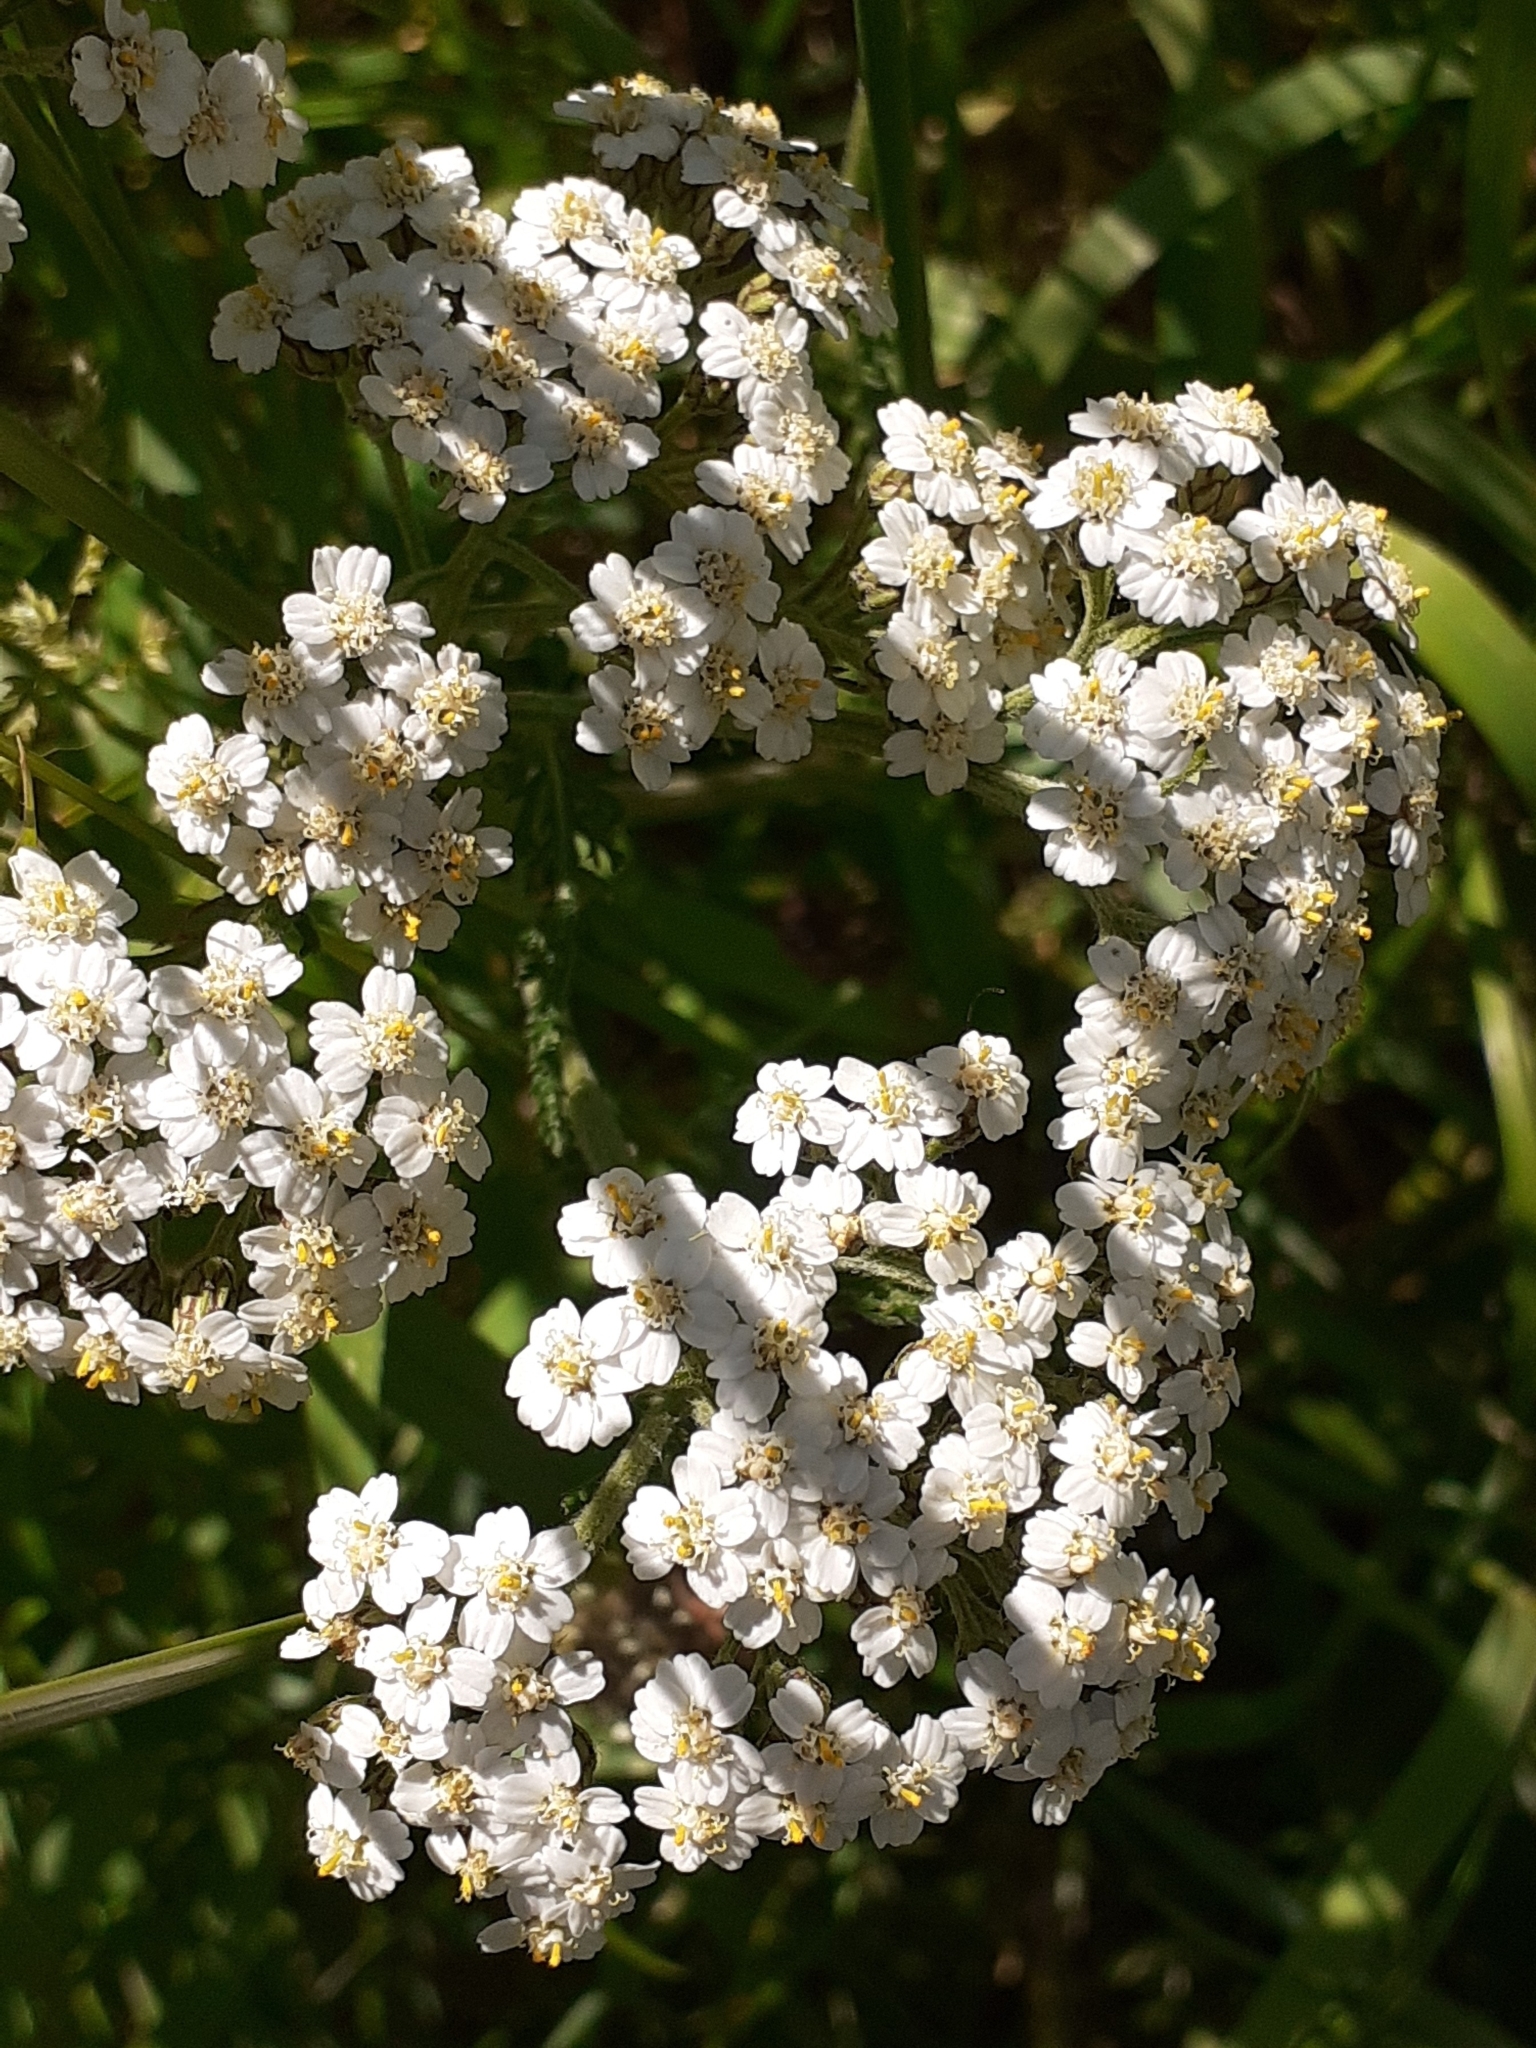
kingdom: Plantae
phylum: Tracheophyta
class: Magnoliopsida
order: Asterales
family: Asteraceae
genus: Achillea
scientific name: Achillea millefolium
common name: Yarrow
